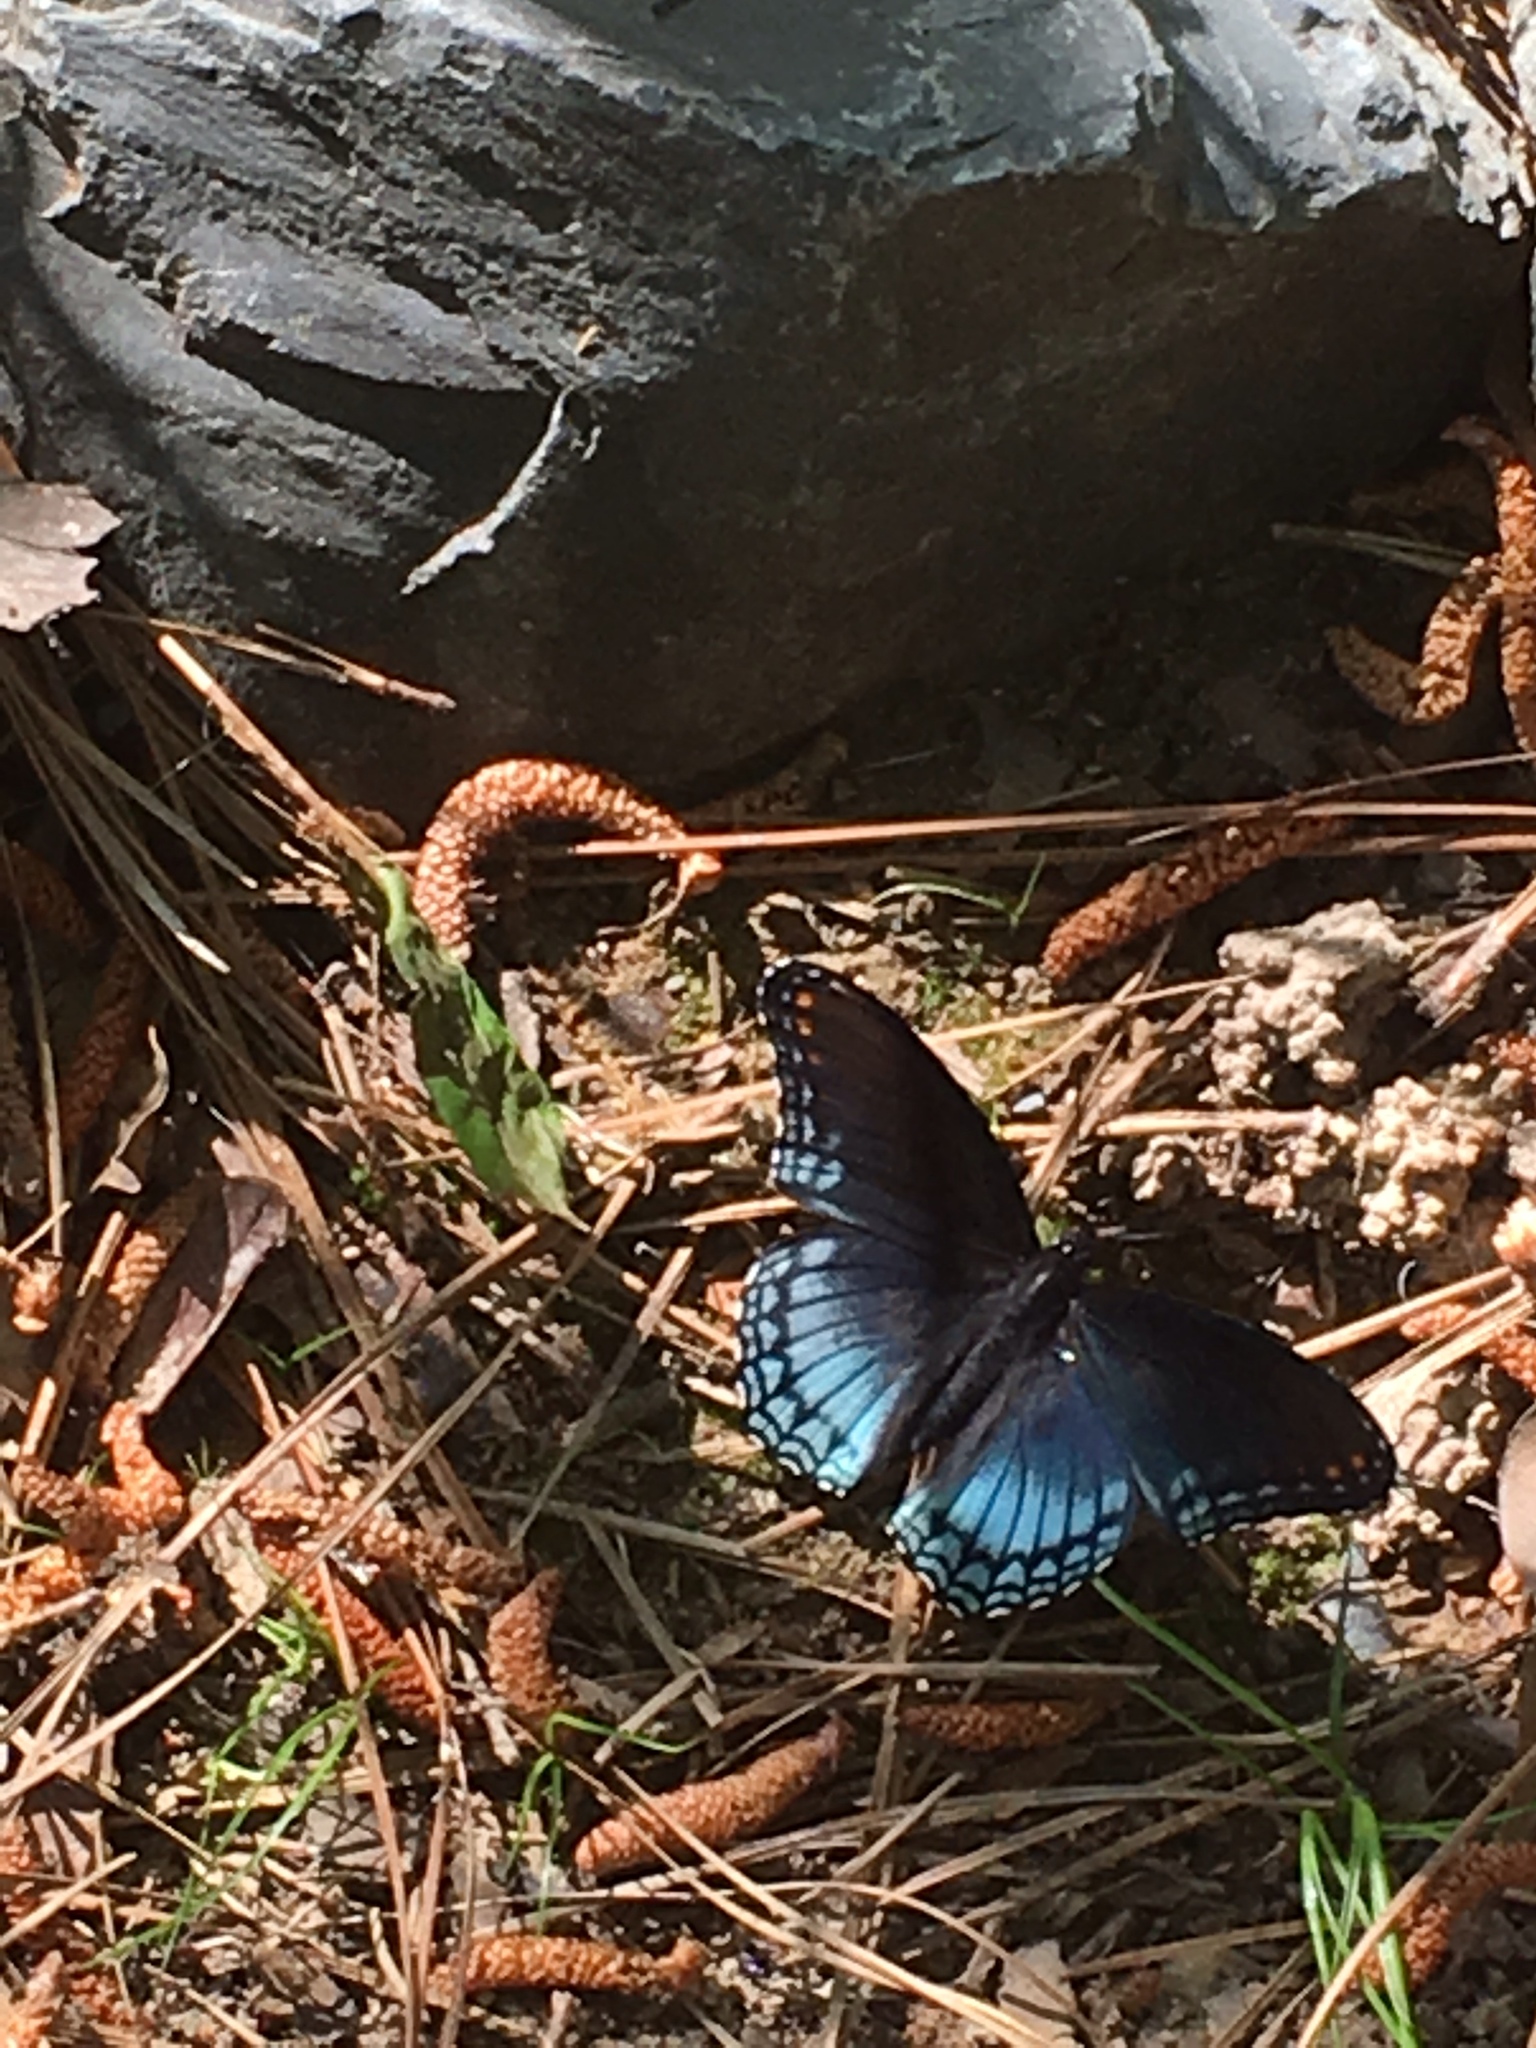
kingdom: Animalia
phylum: Arthropoda
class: Insecta
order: Lepidoptera
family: Nymphalidae
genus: Limenitis
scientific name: Limenitis astyanax
